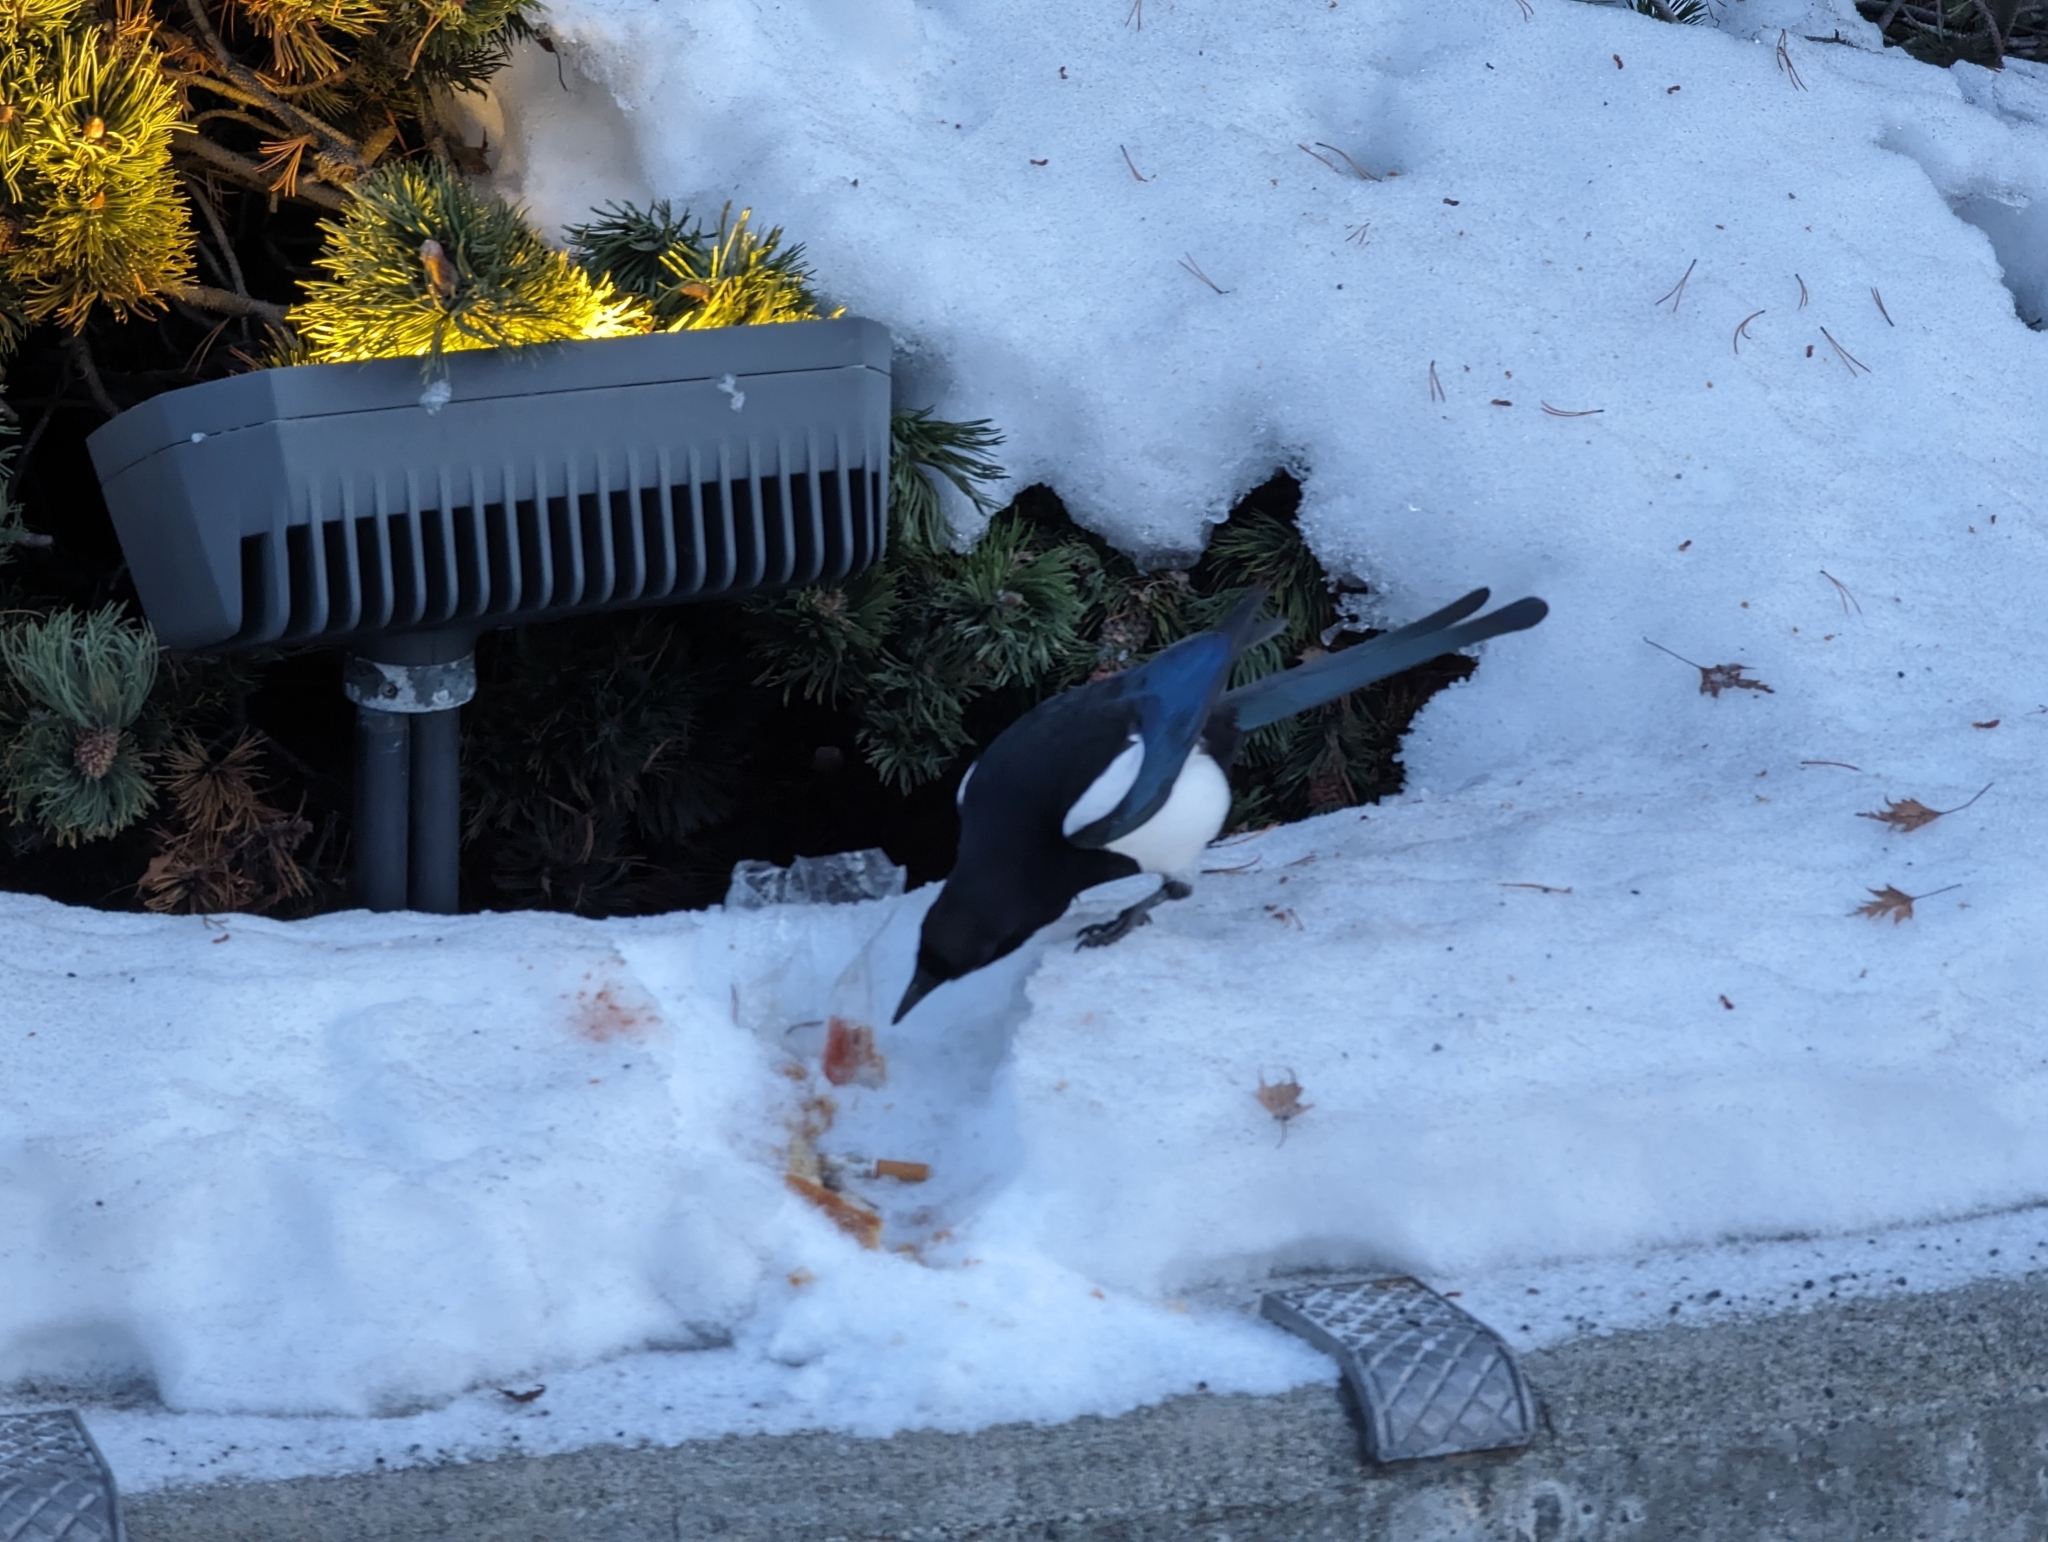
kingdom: Animalia
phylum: Chordata
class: Aves
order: Passeriformes
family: Corvidae
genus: Pica
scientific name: Pica hudsonia
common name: Black-billed magpie
